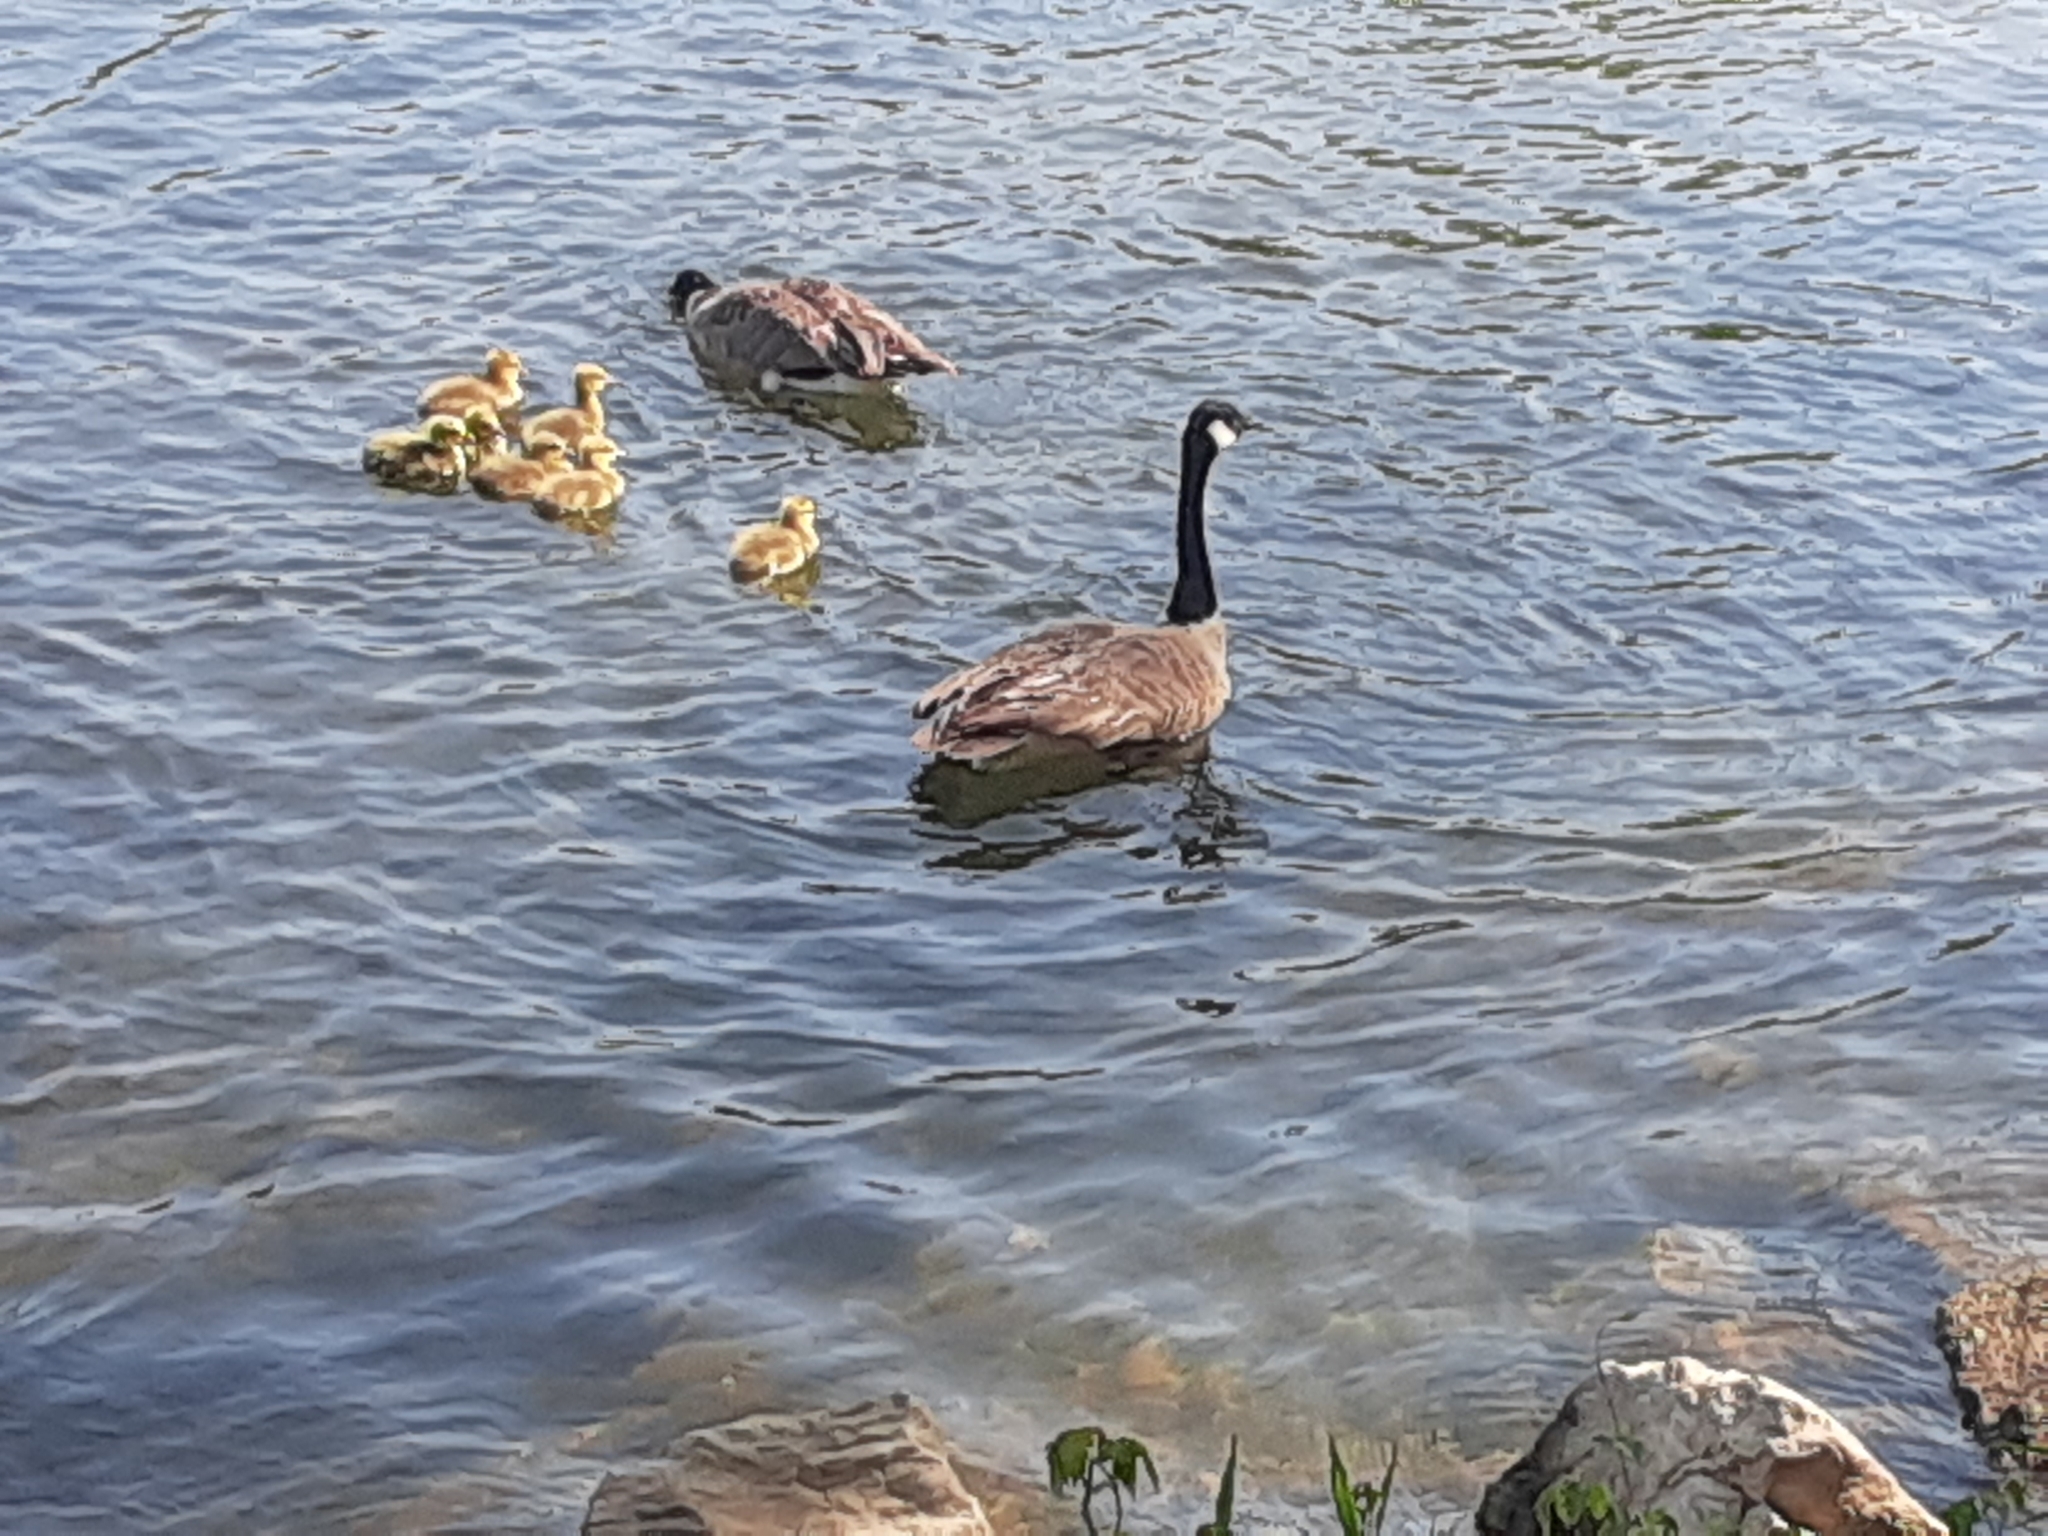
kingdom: Animalia
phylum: Chordata
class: Aves
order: Anseriformes
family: Anatidae
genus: Branta
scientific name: Branta canadensis
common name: Canada goose
